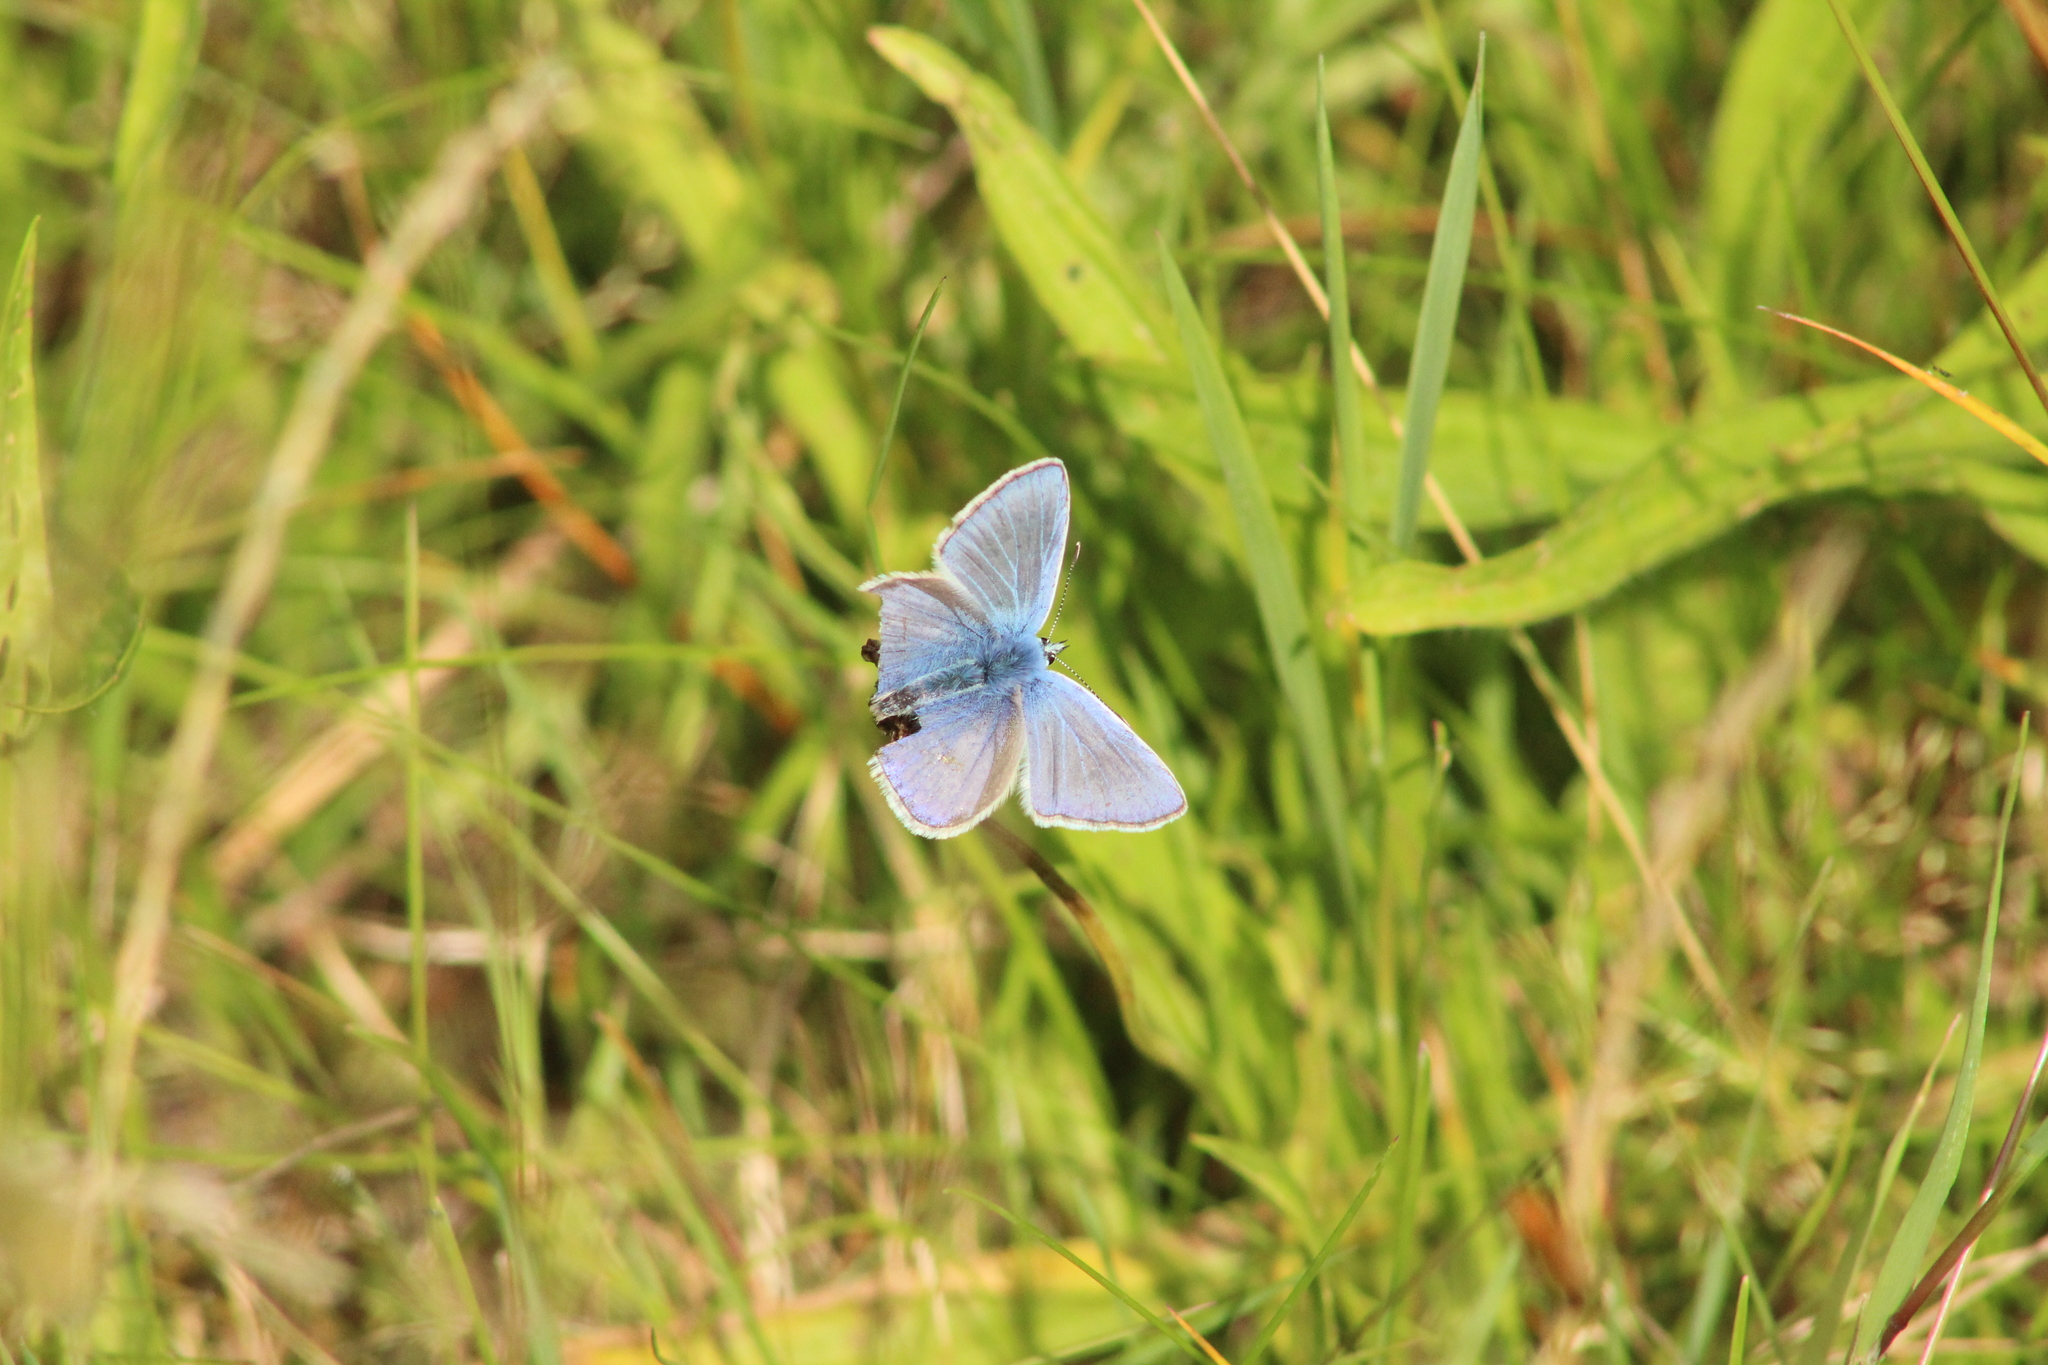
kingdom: Animalia
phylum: Arthropoda
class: Insecta
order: Lepidoptera
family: Lycaenidae
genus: Polyommatus
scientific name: Polyommatus icarus
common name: Common blue
